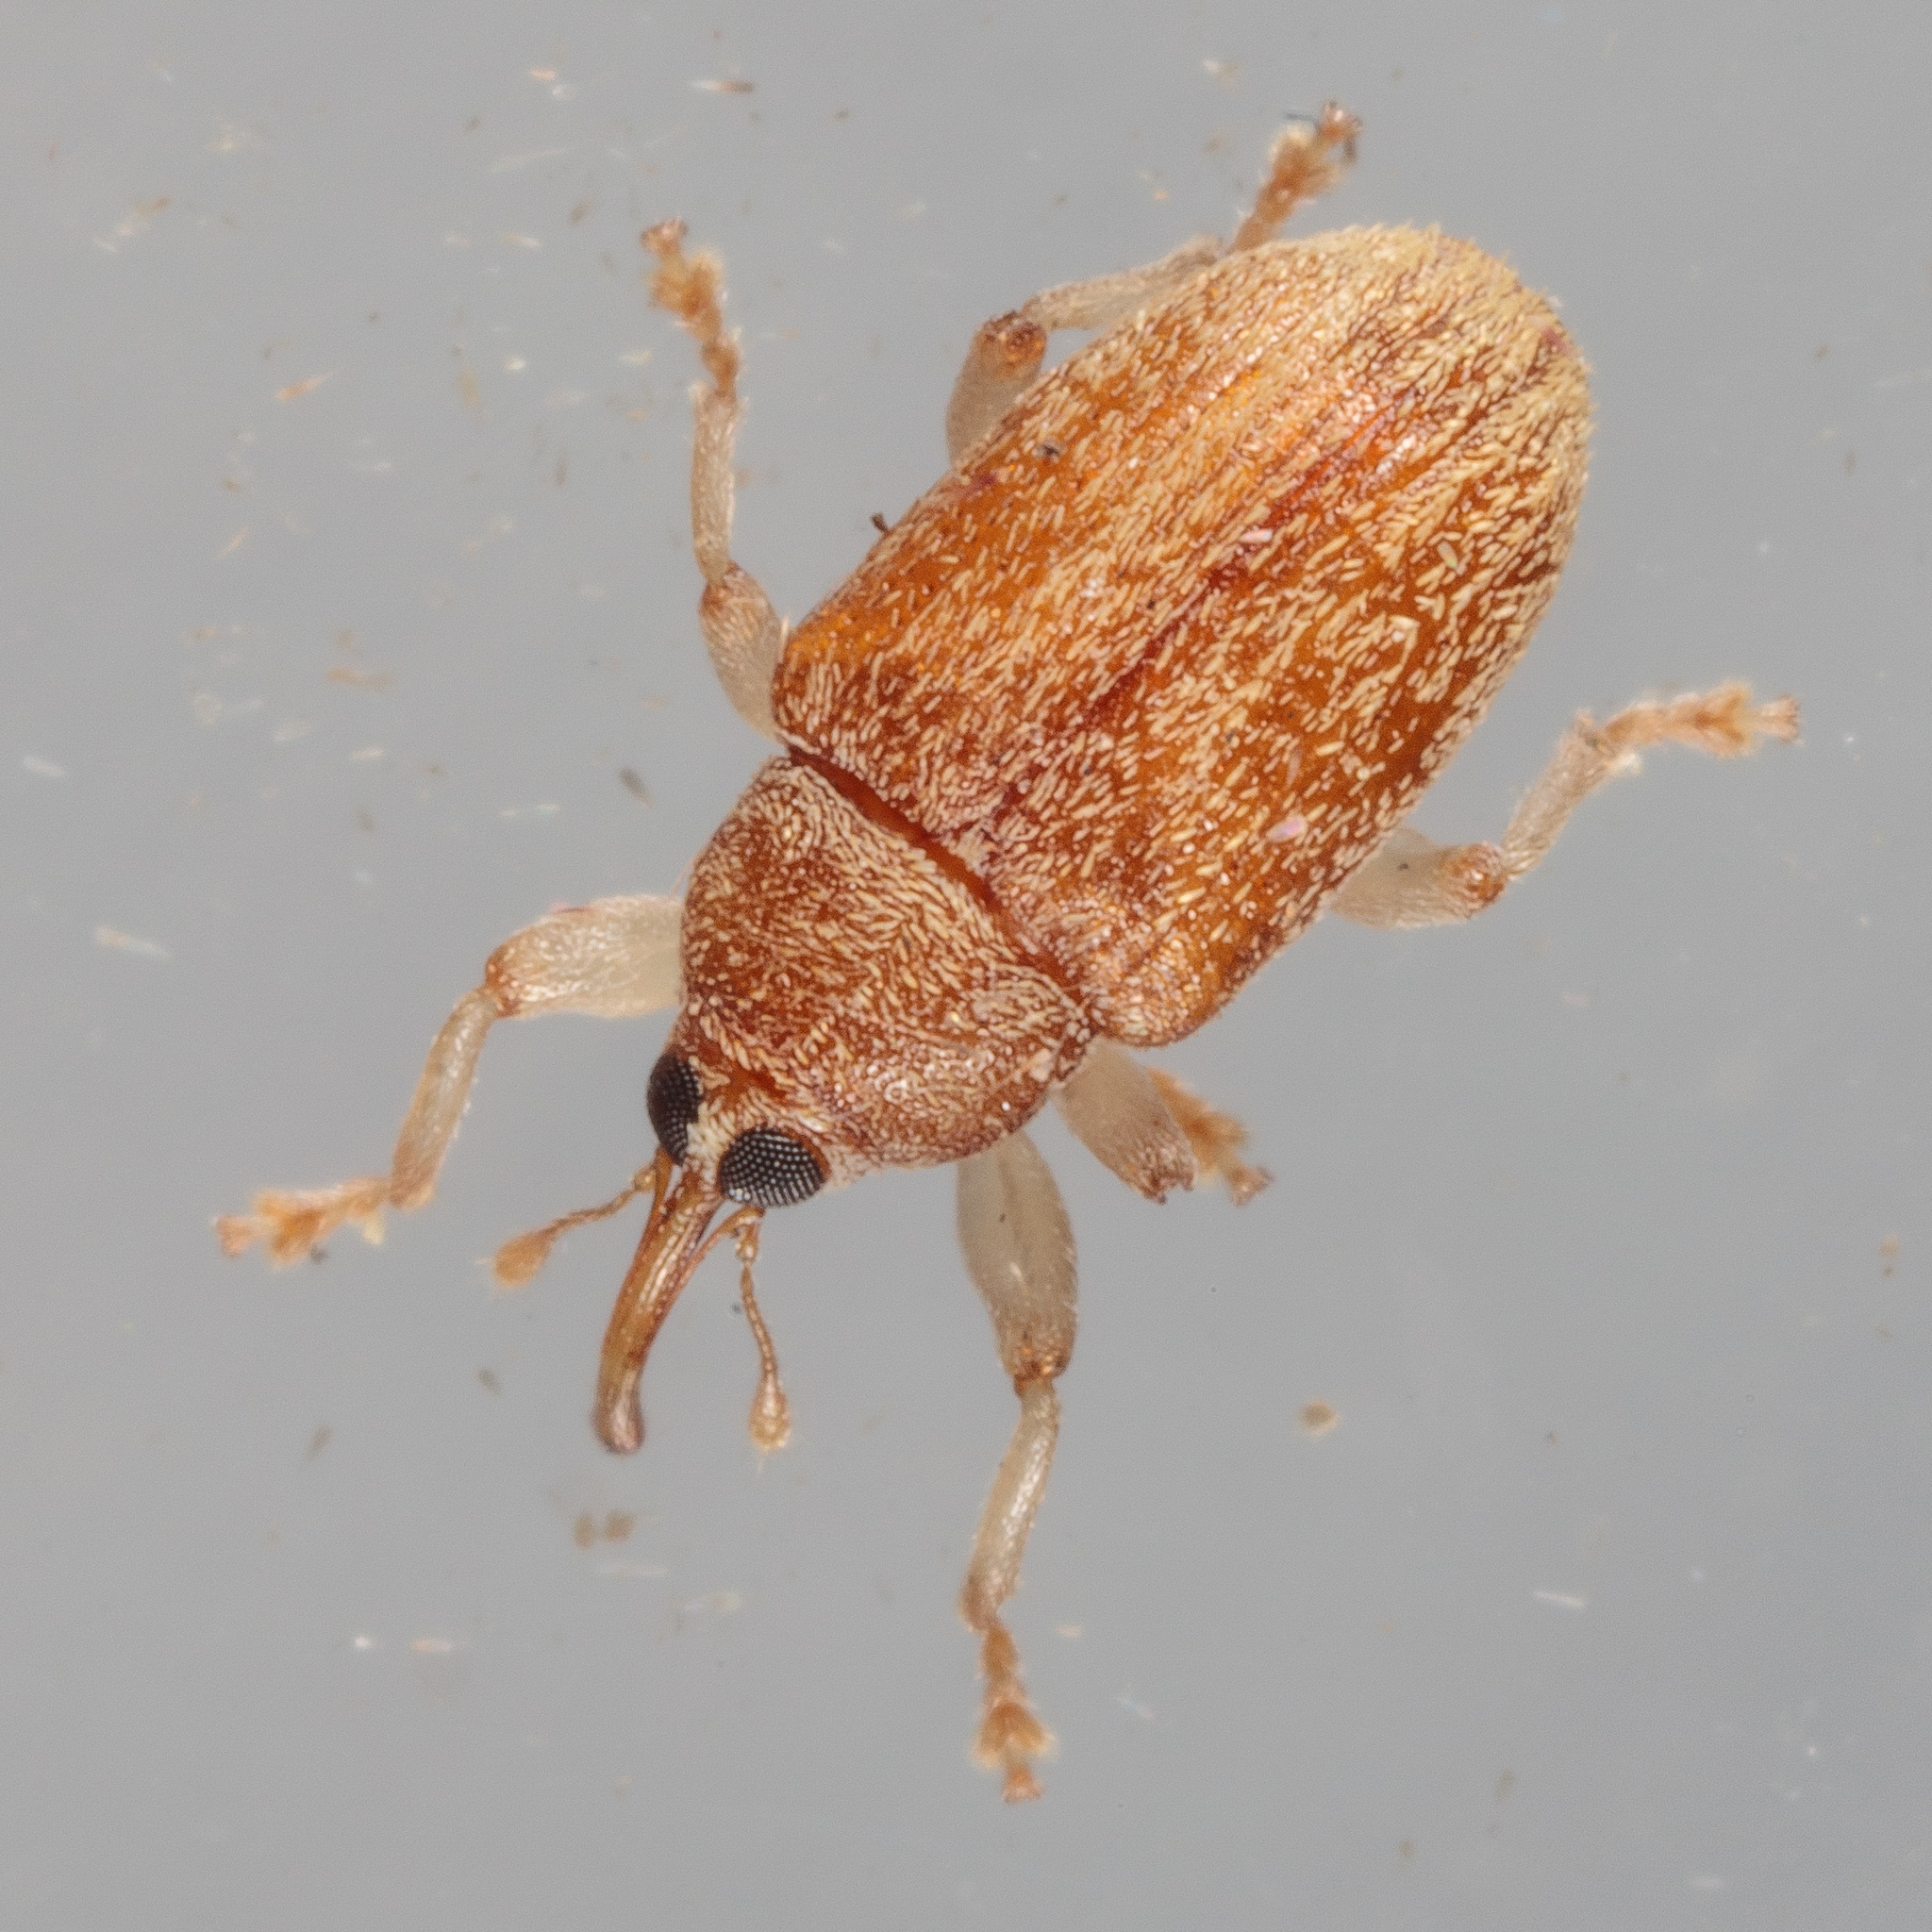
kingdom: Animalia
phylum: Arthropoda
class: Insecta
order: Coleoptera
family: Curculionidae
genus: Lignyodes
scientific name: Lignyodes helvolus
